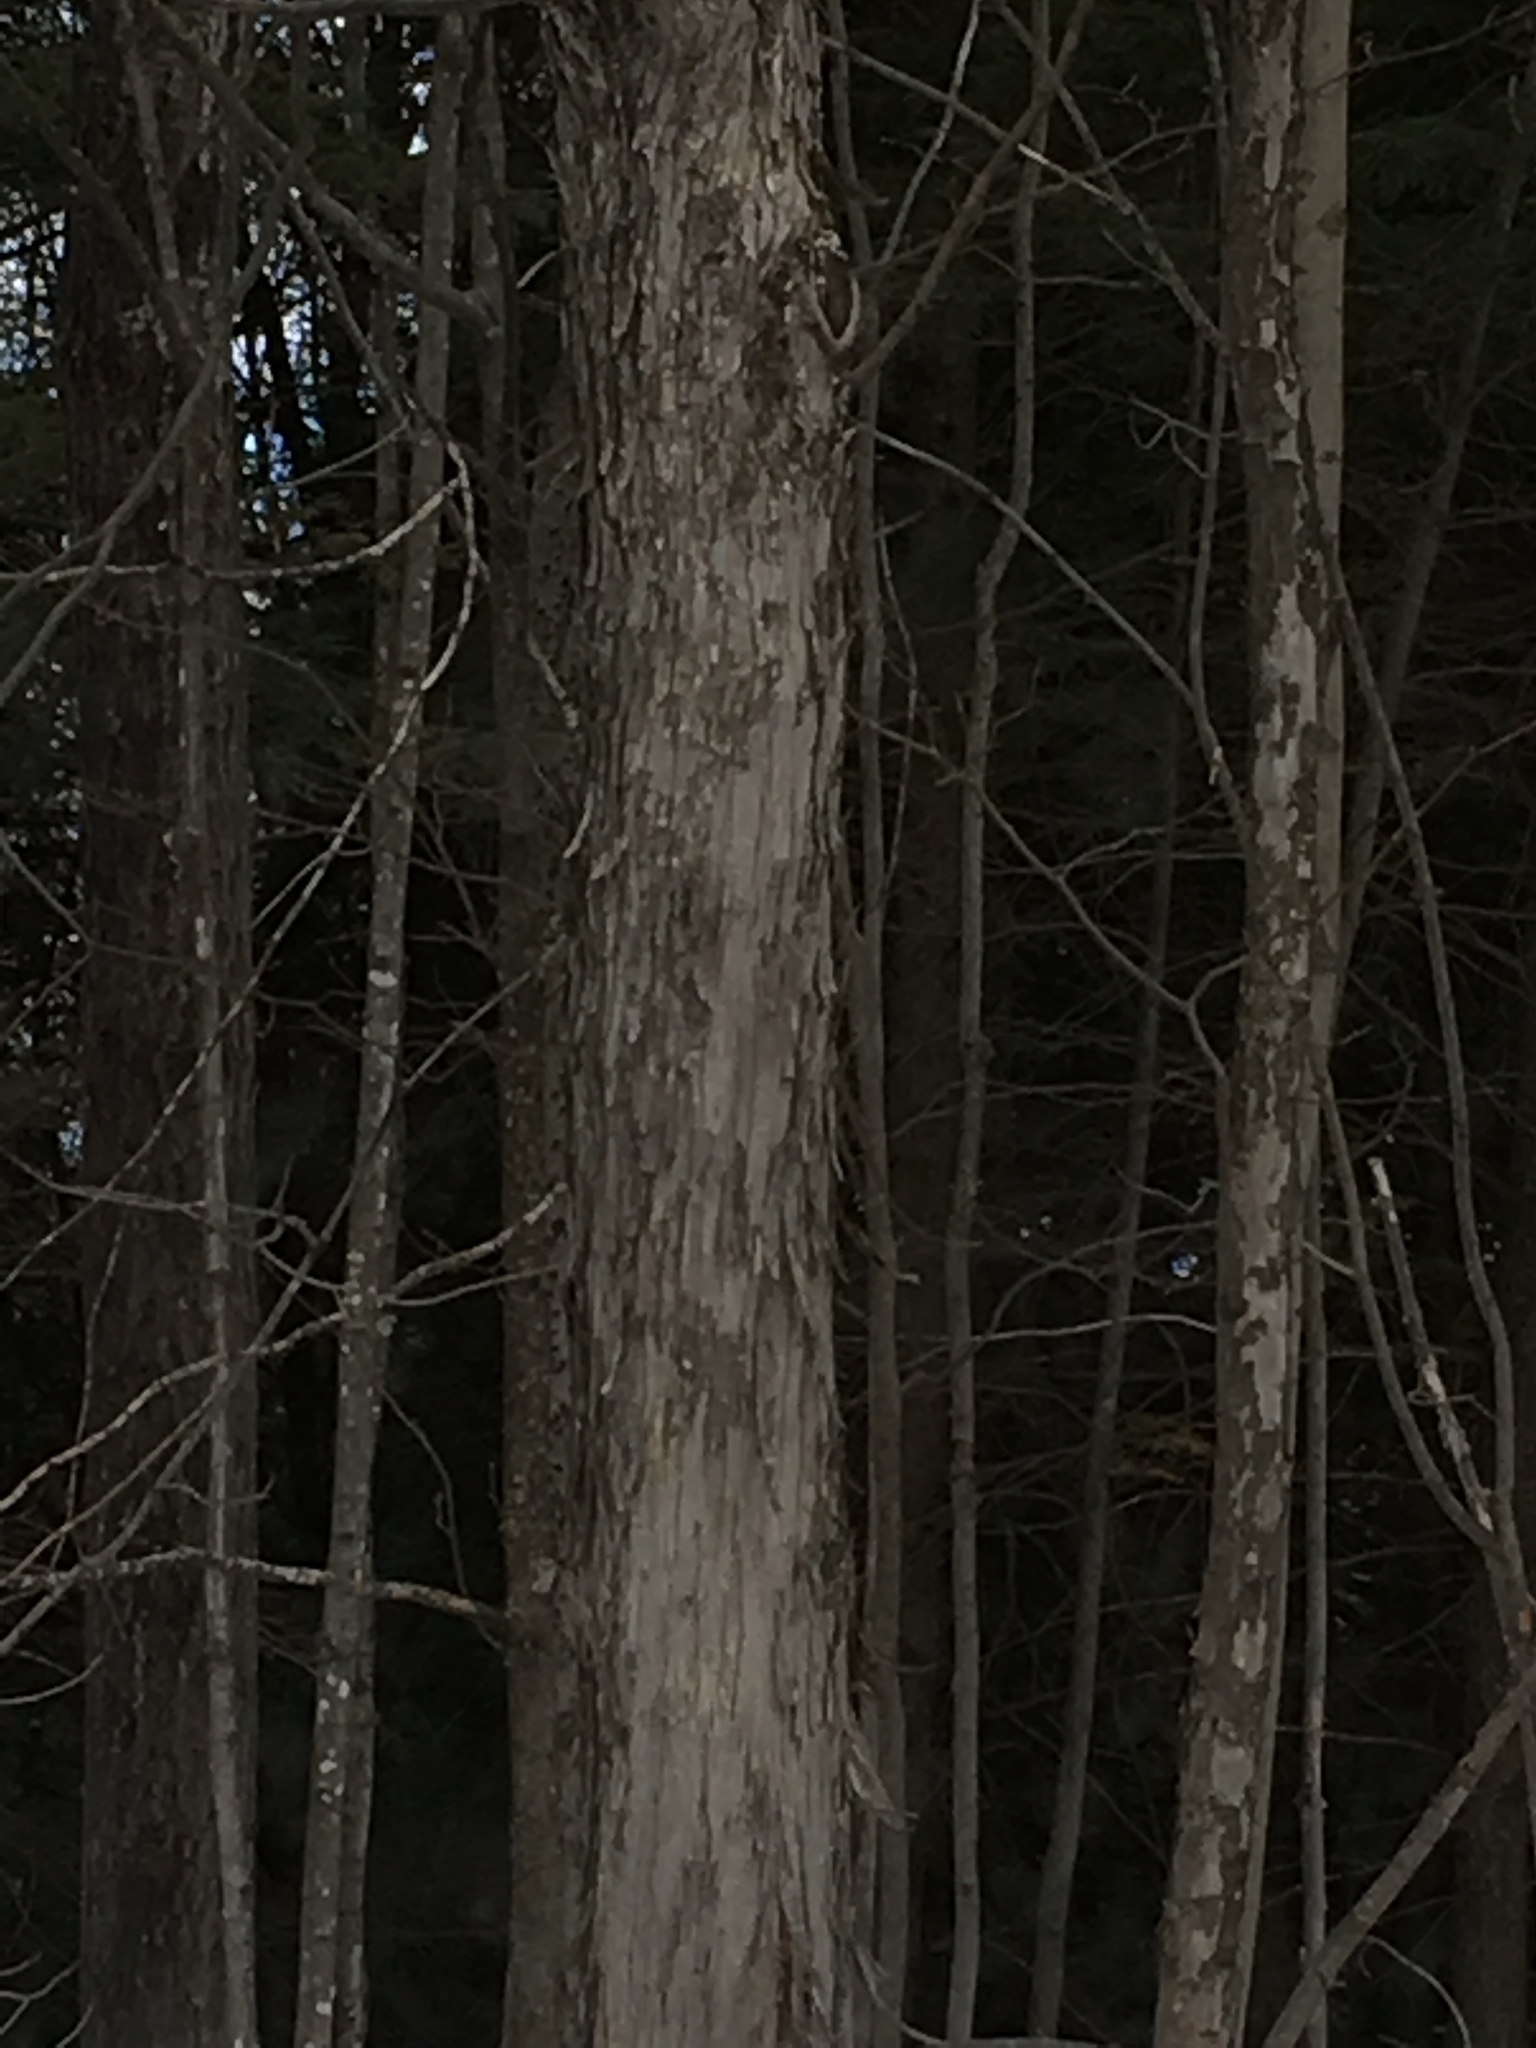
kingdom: Plantae
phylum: Tracheophyta
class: Magnoliopsida
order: Fagales
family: Betulaceae
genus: Ostrya
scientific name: Ostrya virginiana
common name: Ironwood
